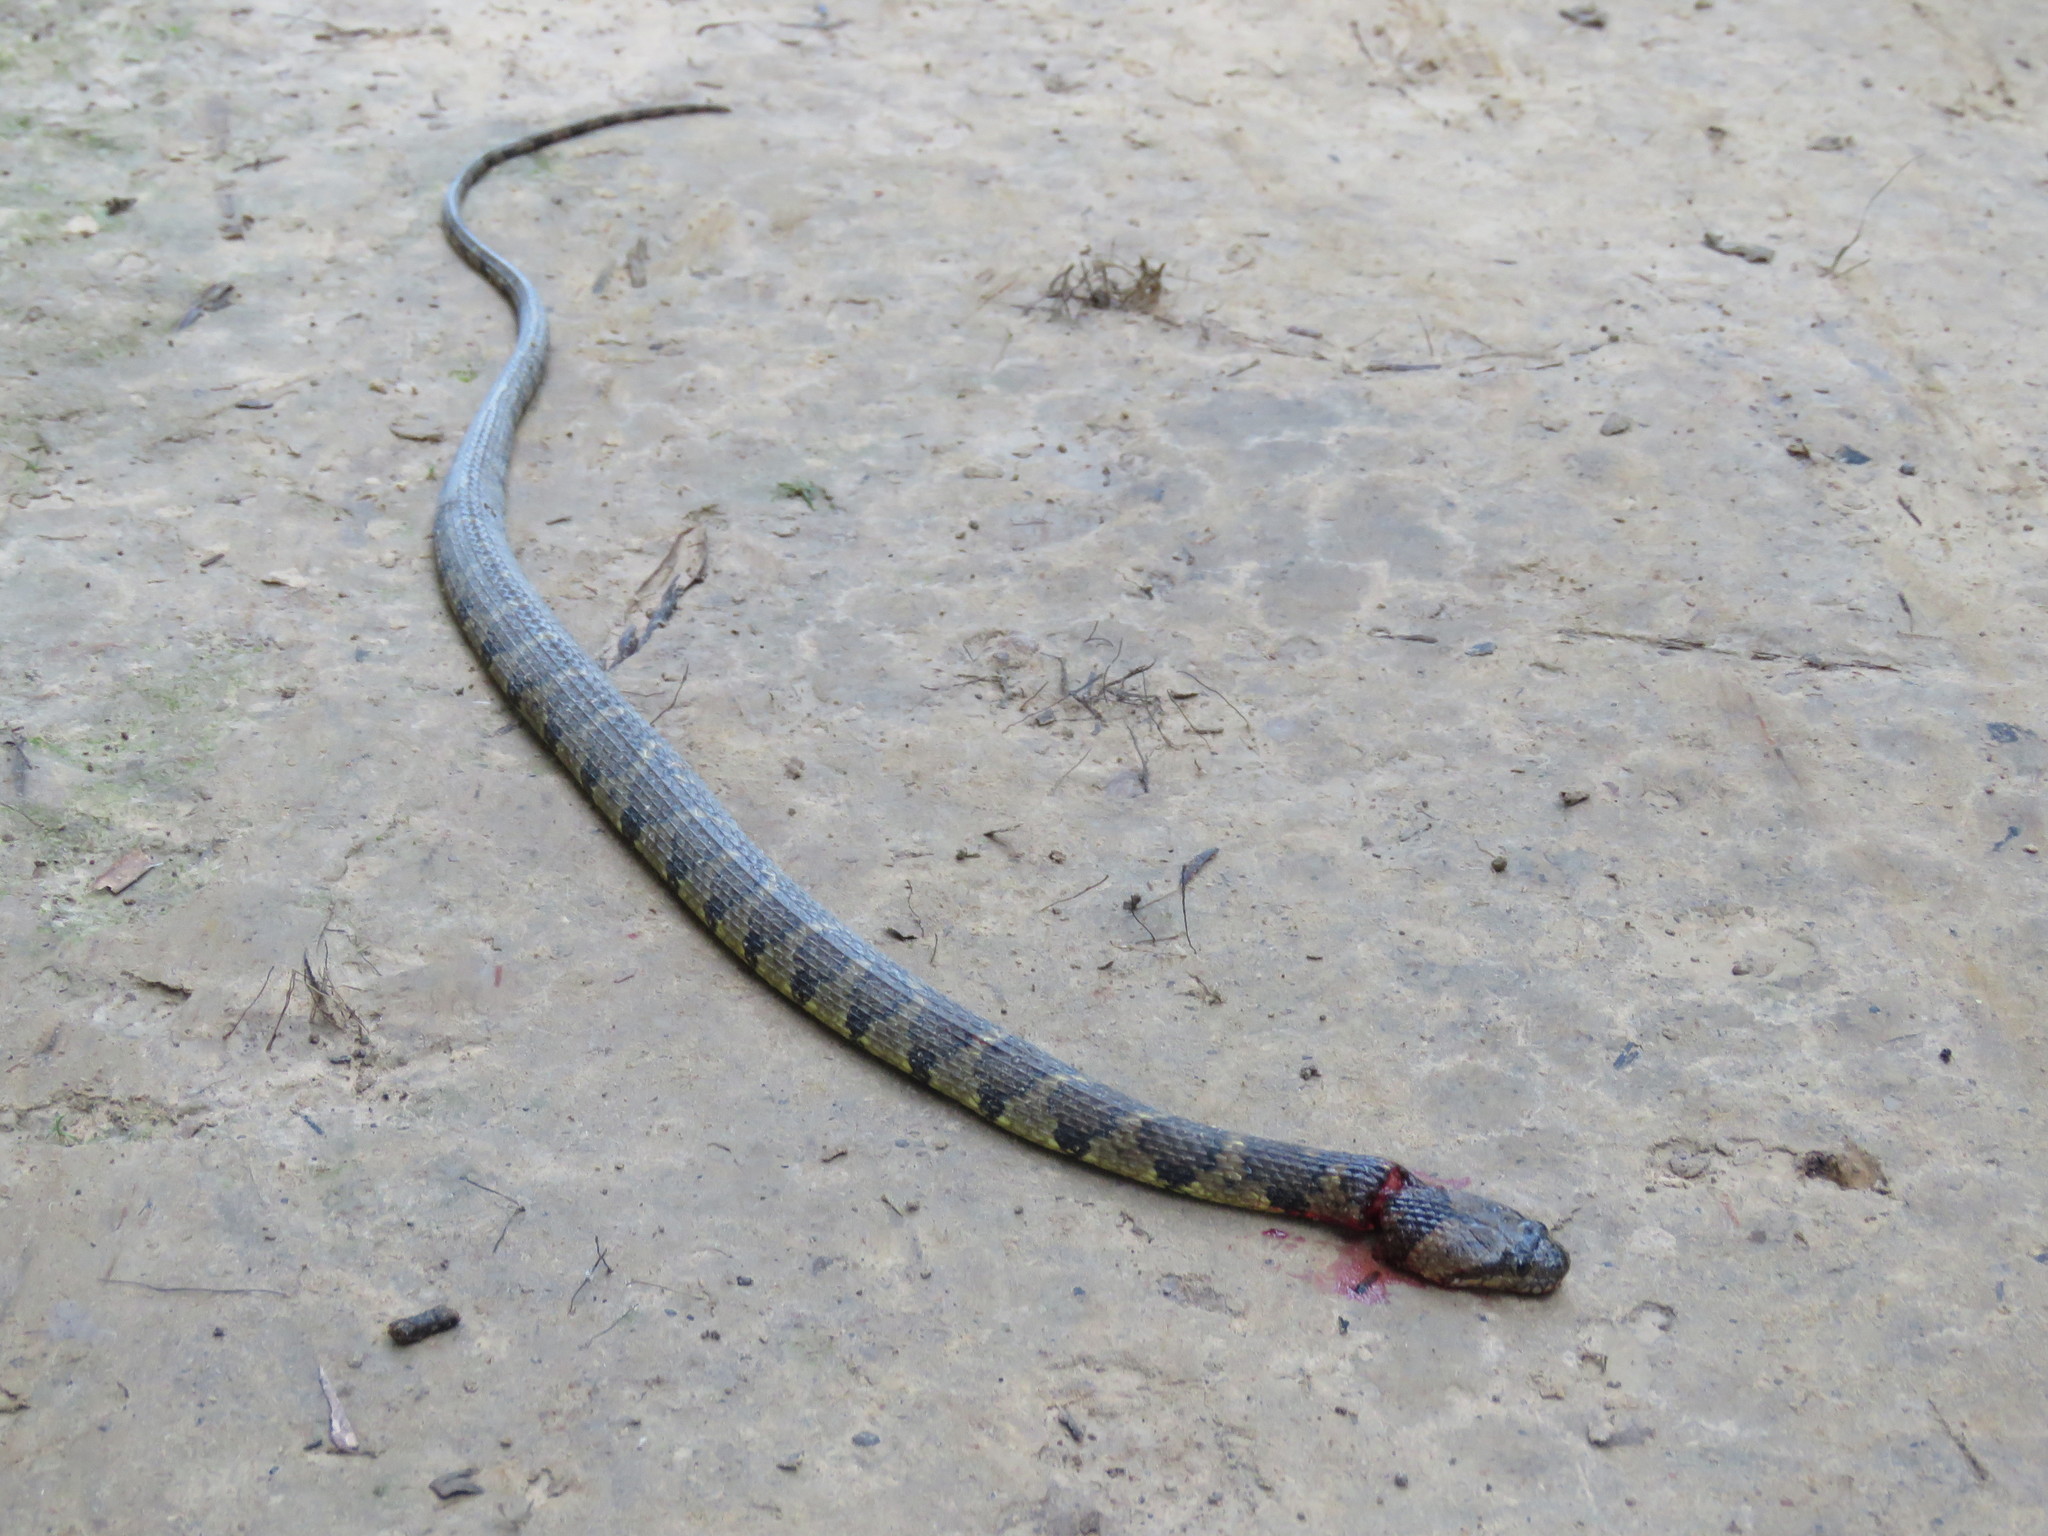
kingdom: Animalia
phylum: Chordata
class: Squamata
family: Colubridae
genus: Helicops
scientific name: Helicops angulatus
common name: Mountain keelback
